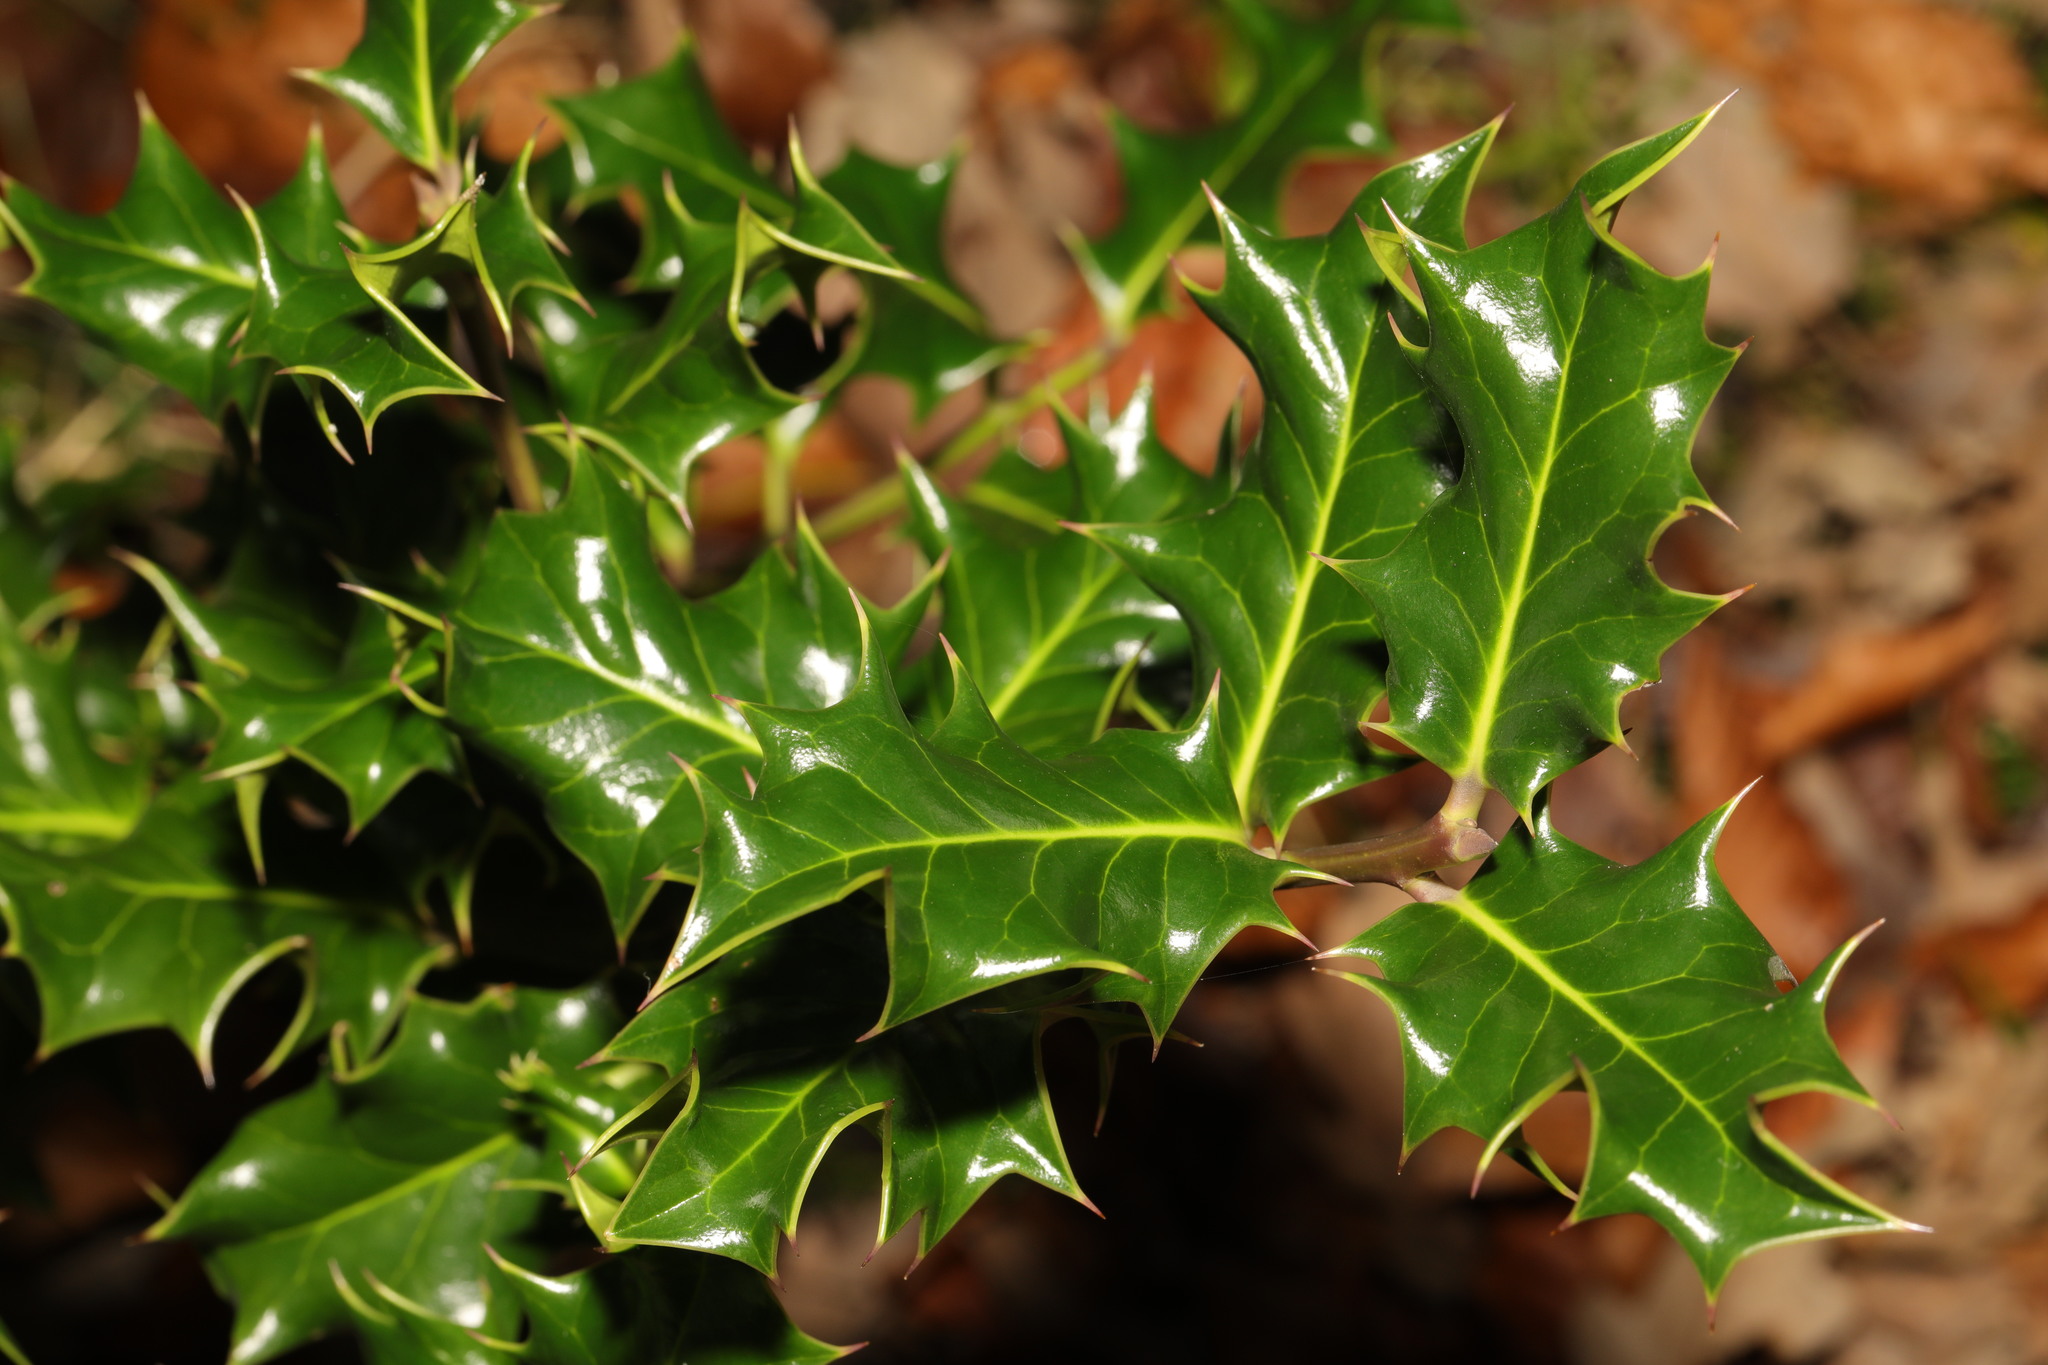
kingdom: Plantae
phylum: Tracheophyta
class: Magnoliopsida
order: Aquifoliales
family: Aquifoliaceae
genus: Ilex
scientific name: Ilex aquifolium
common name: English holly
